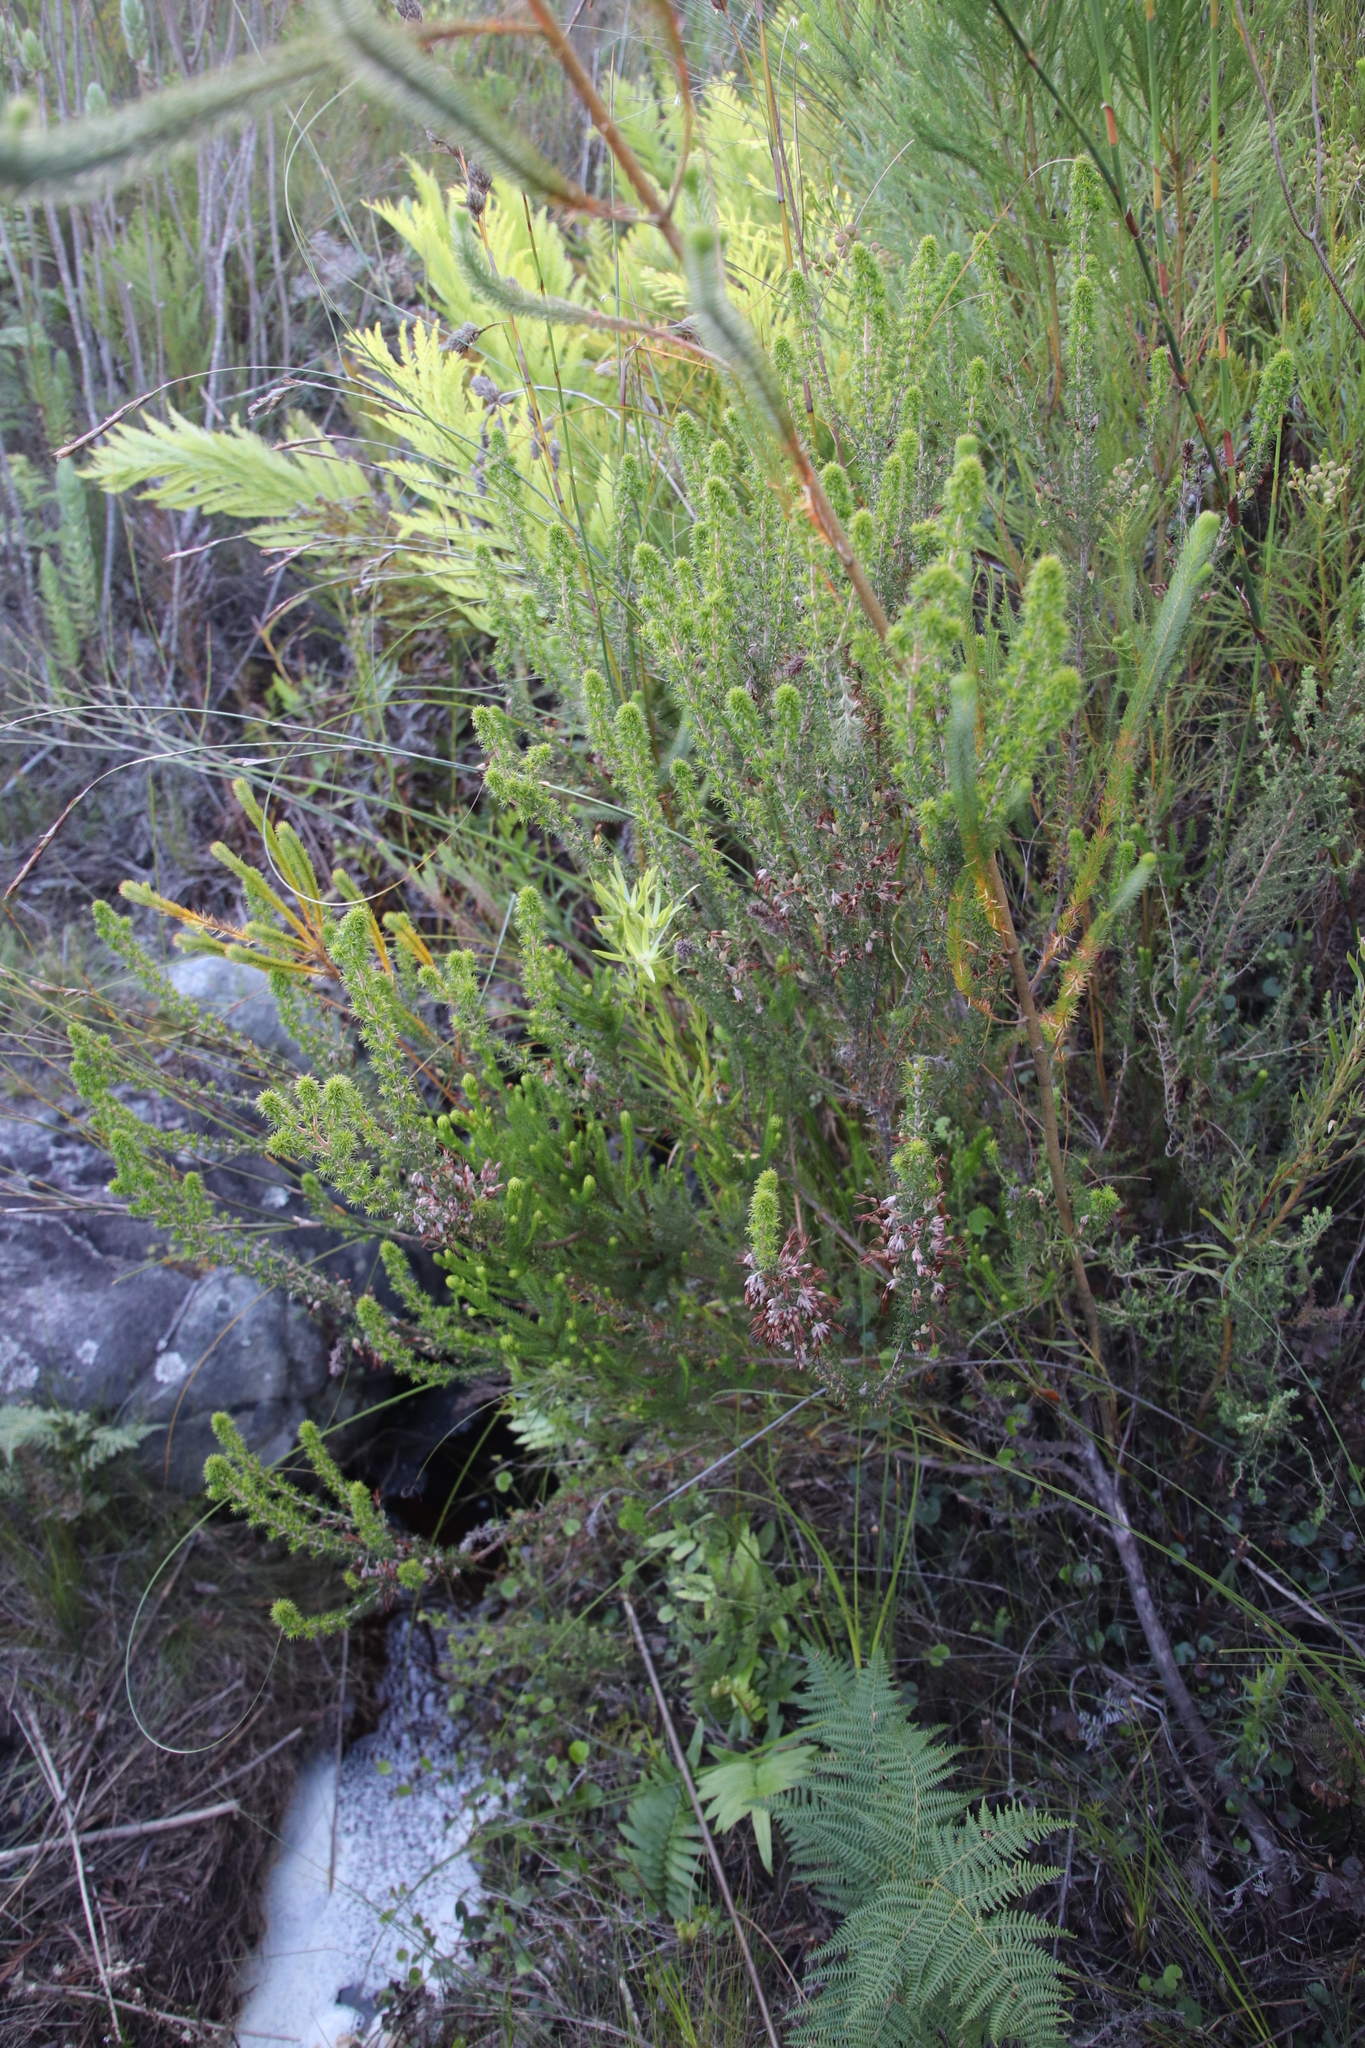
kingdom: Plantae
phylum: Tracheophyta
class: Magnoliopsida
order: Ericales
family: Ericaceae
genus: Erica
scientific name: Erica coccinea
